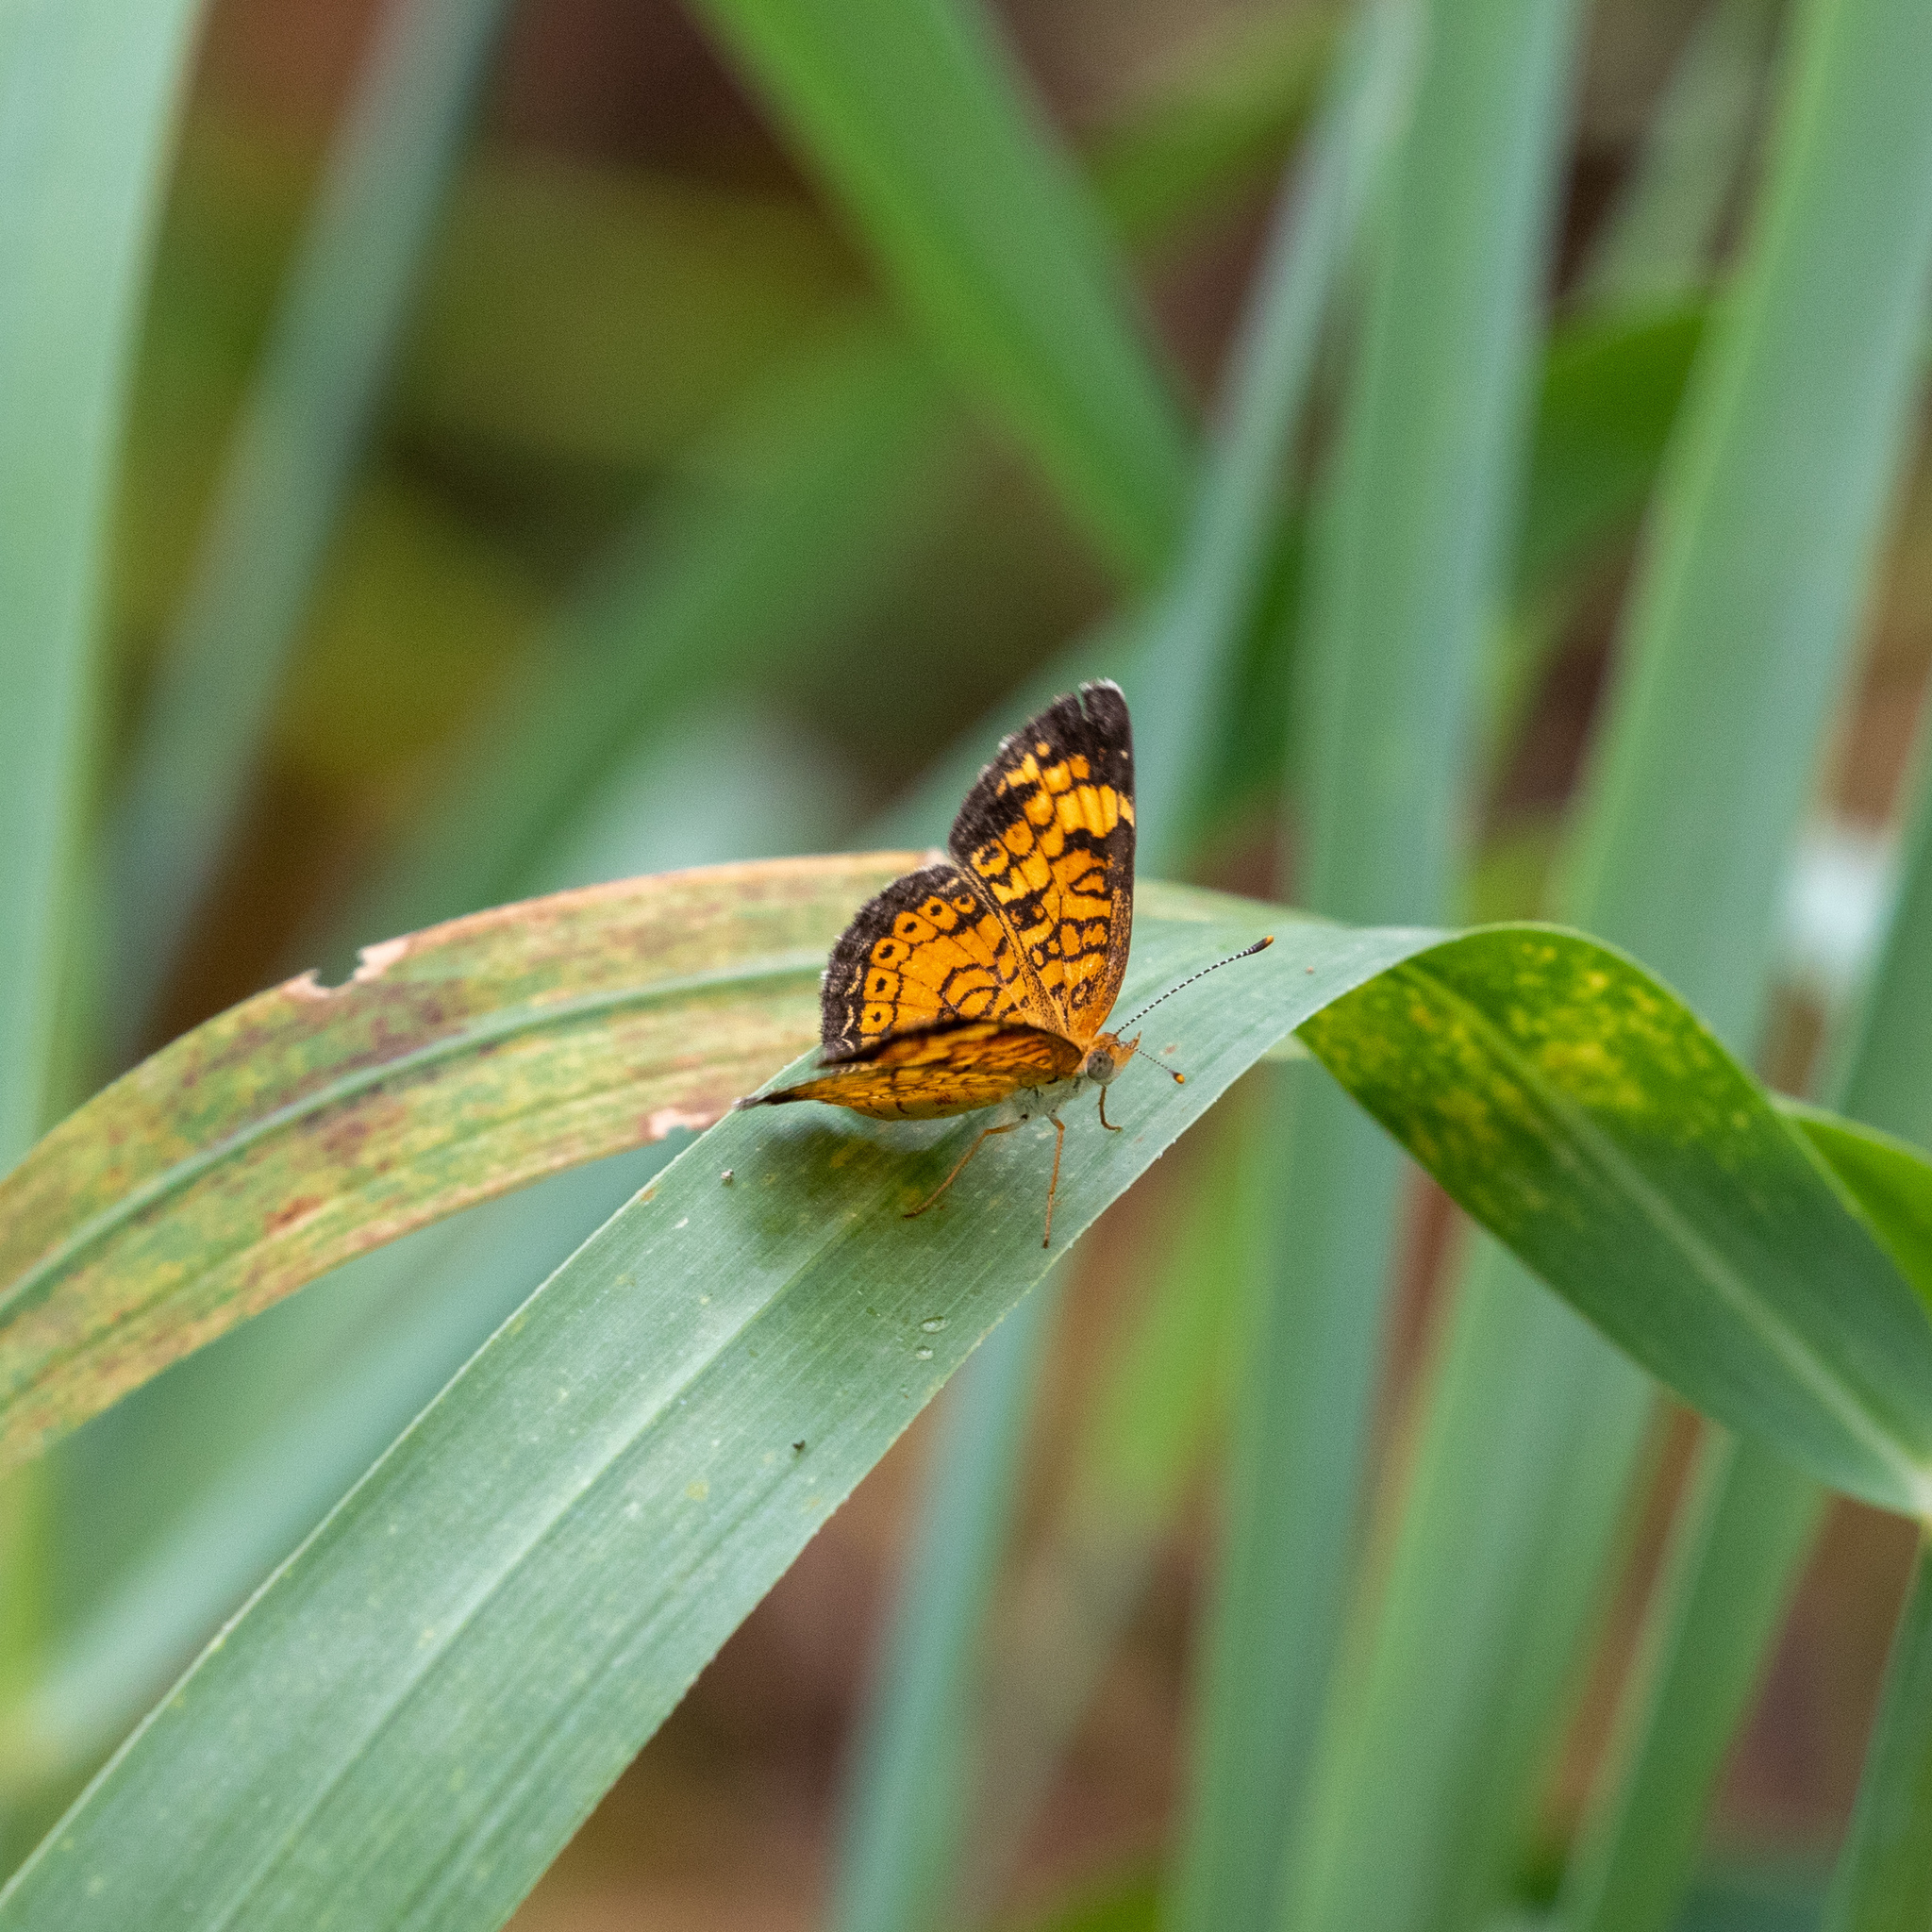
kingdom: Animalia
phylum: Arthropoda
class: Insecta
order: Lepidoptera
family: Nymphalidae
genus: Phyciodes
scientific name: Phyciodes tharos
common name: Pearl crescent
